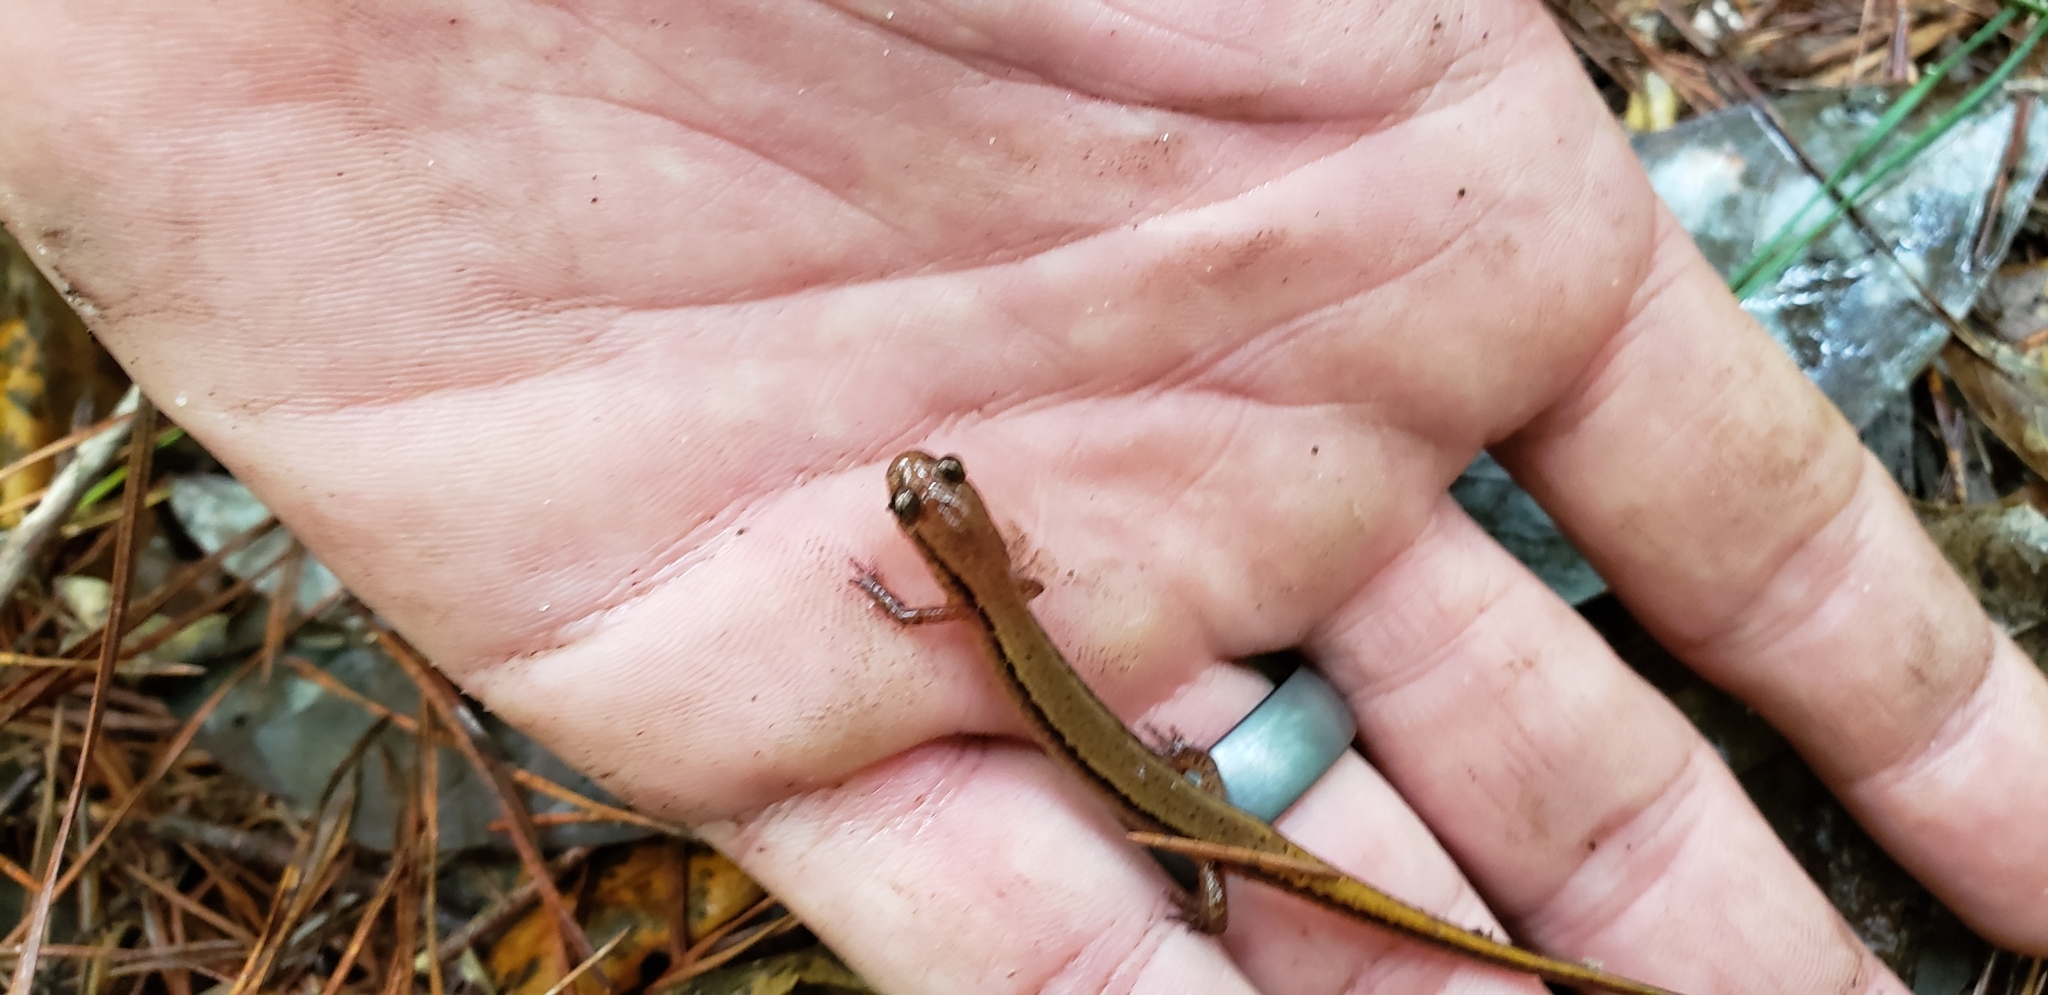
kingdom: Animalia
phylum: Chordata
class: Amphibia
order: Caudata
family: Plethodontidae
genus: Eurycea
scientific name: Eurycea cirrigera
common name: Southern two-lined salamander
